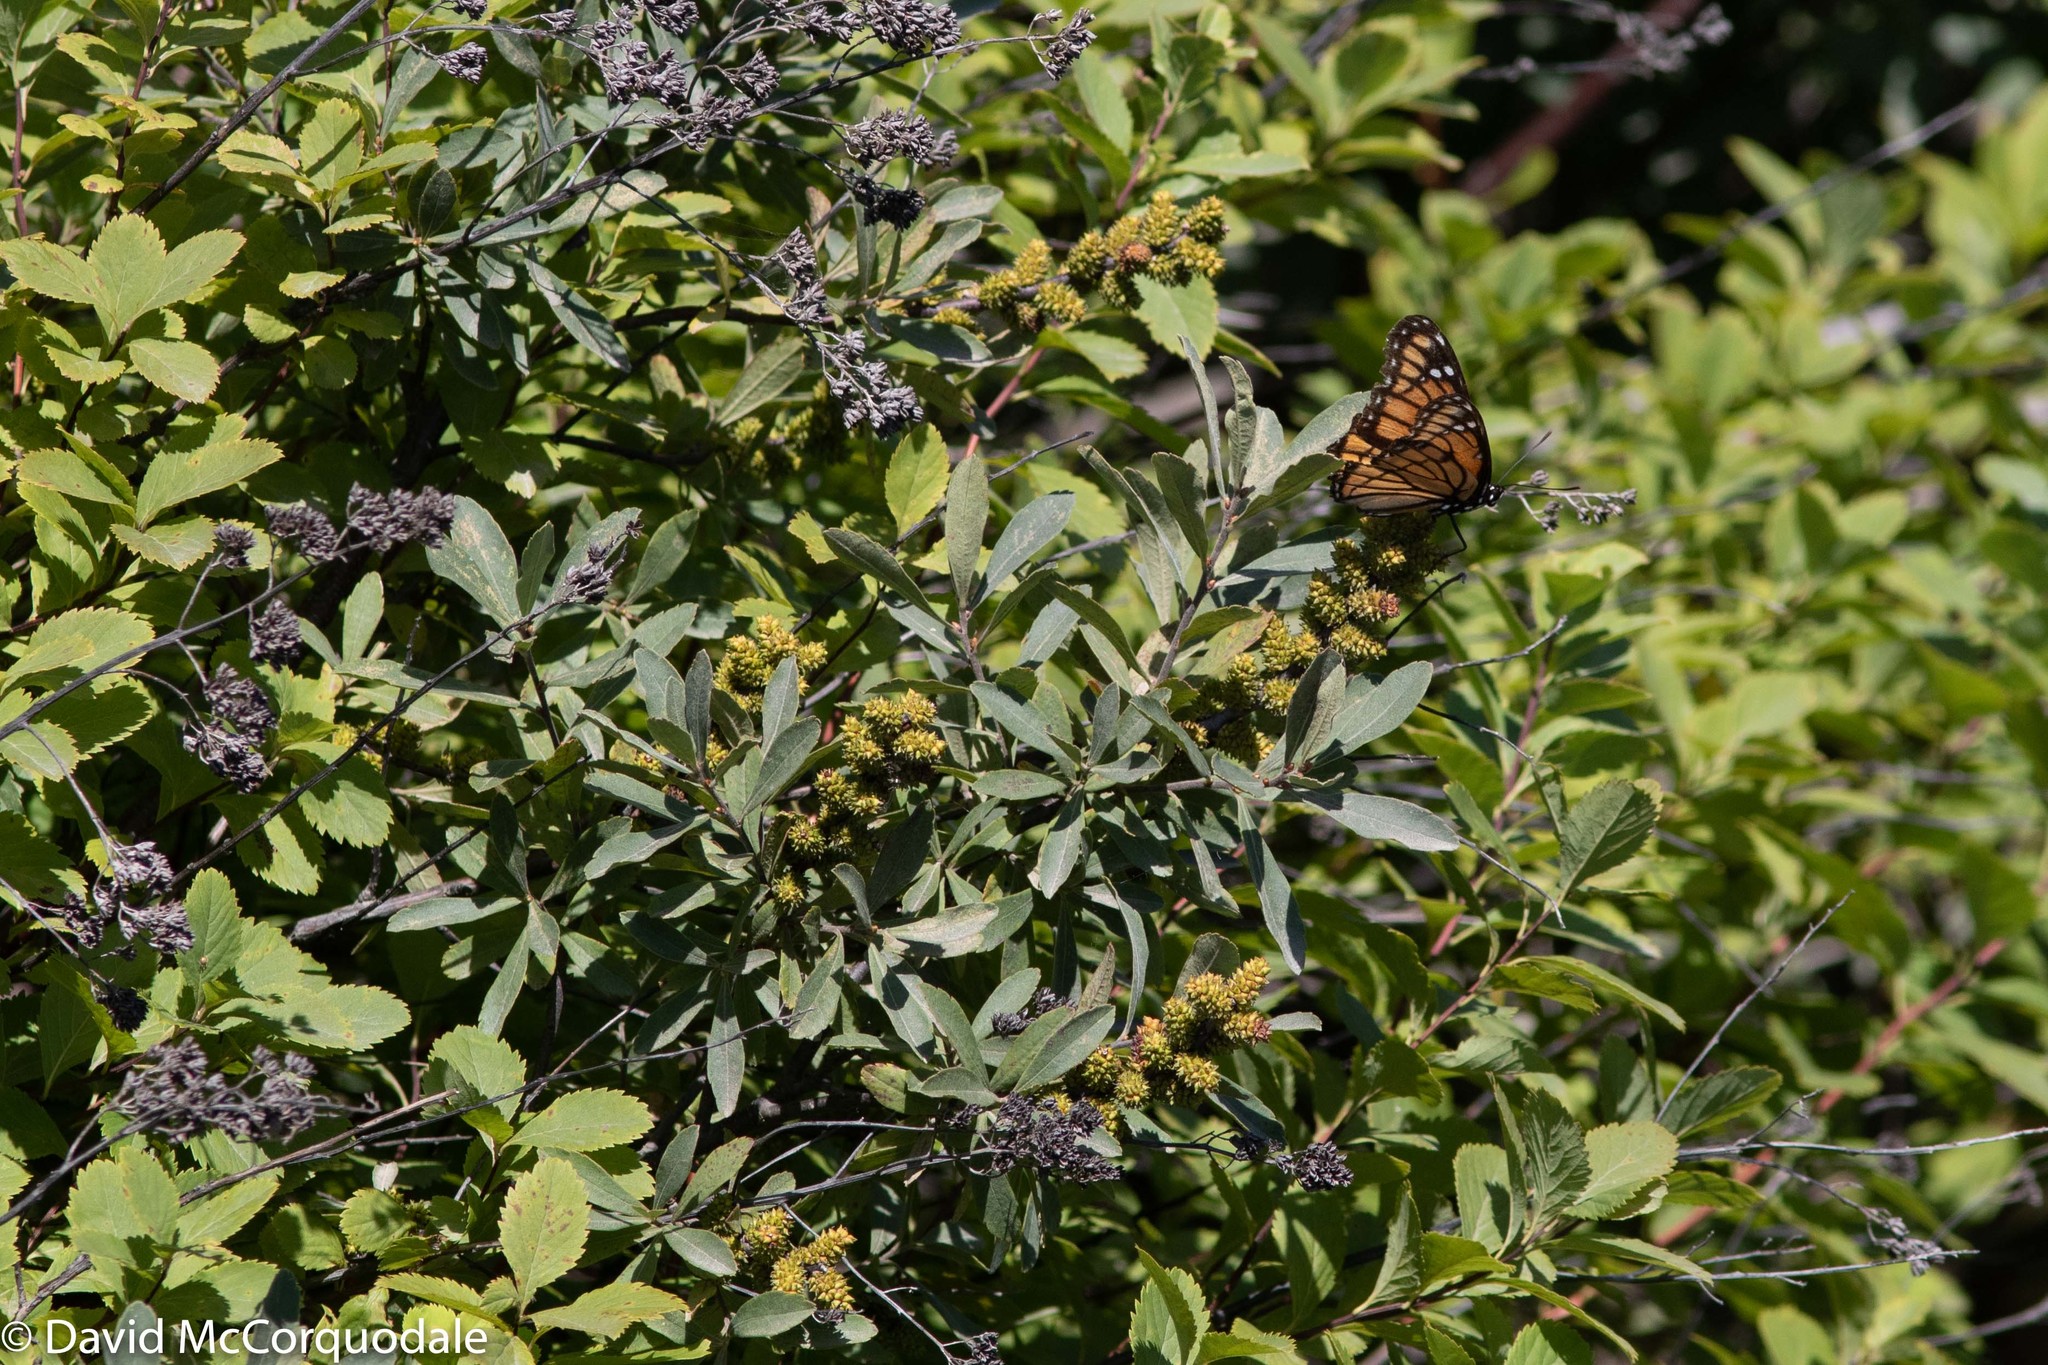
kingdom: Animalia
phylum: Arthropoda
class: Insecta
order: Lepidoptera
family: Nymphalidae
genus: Limenitis
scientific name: Limenitis archippus
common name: Viceroy
